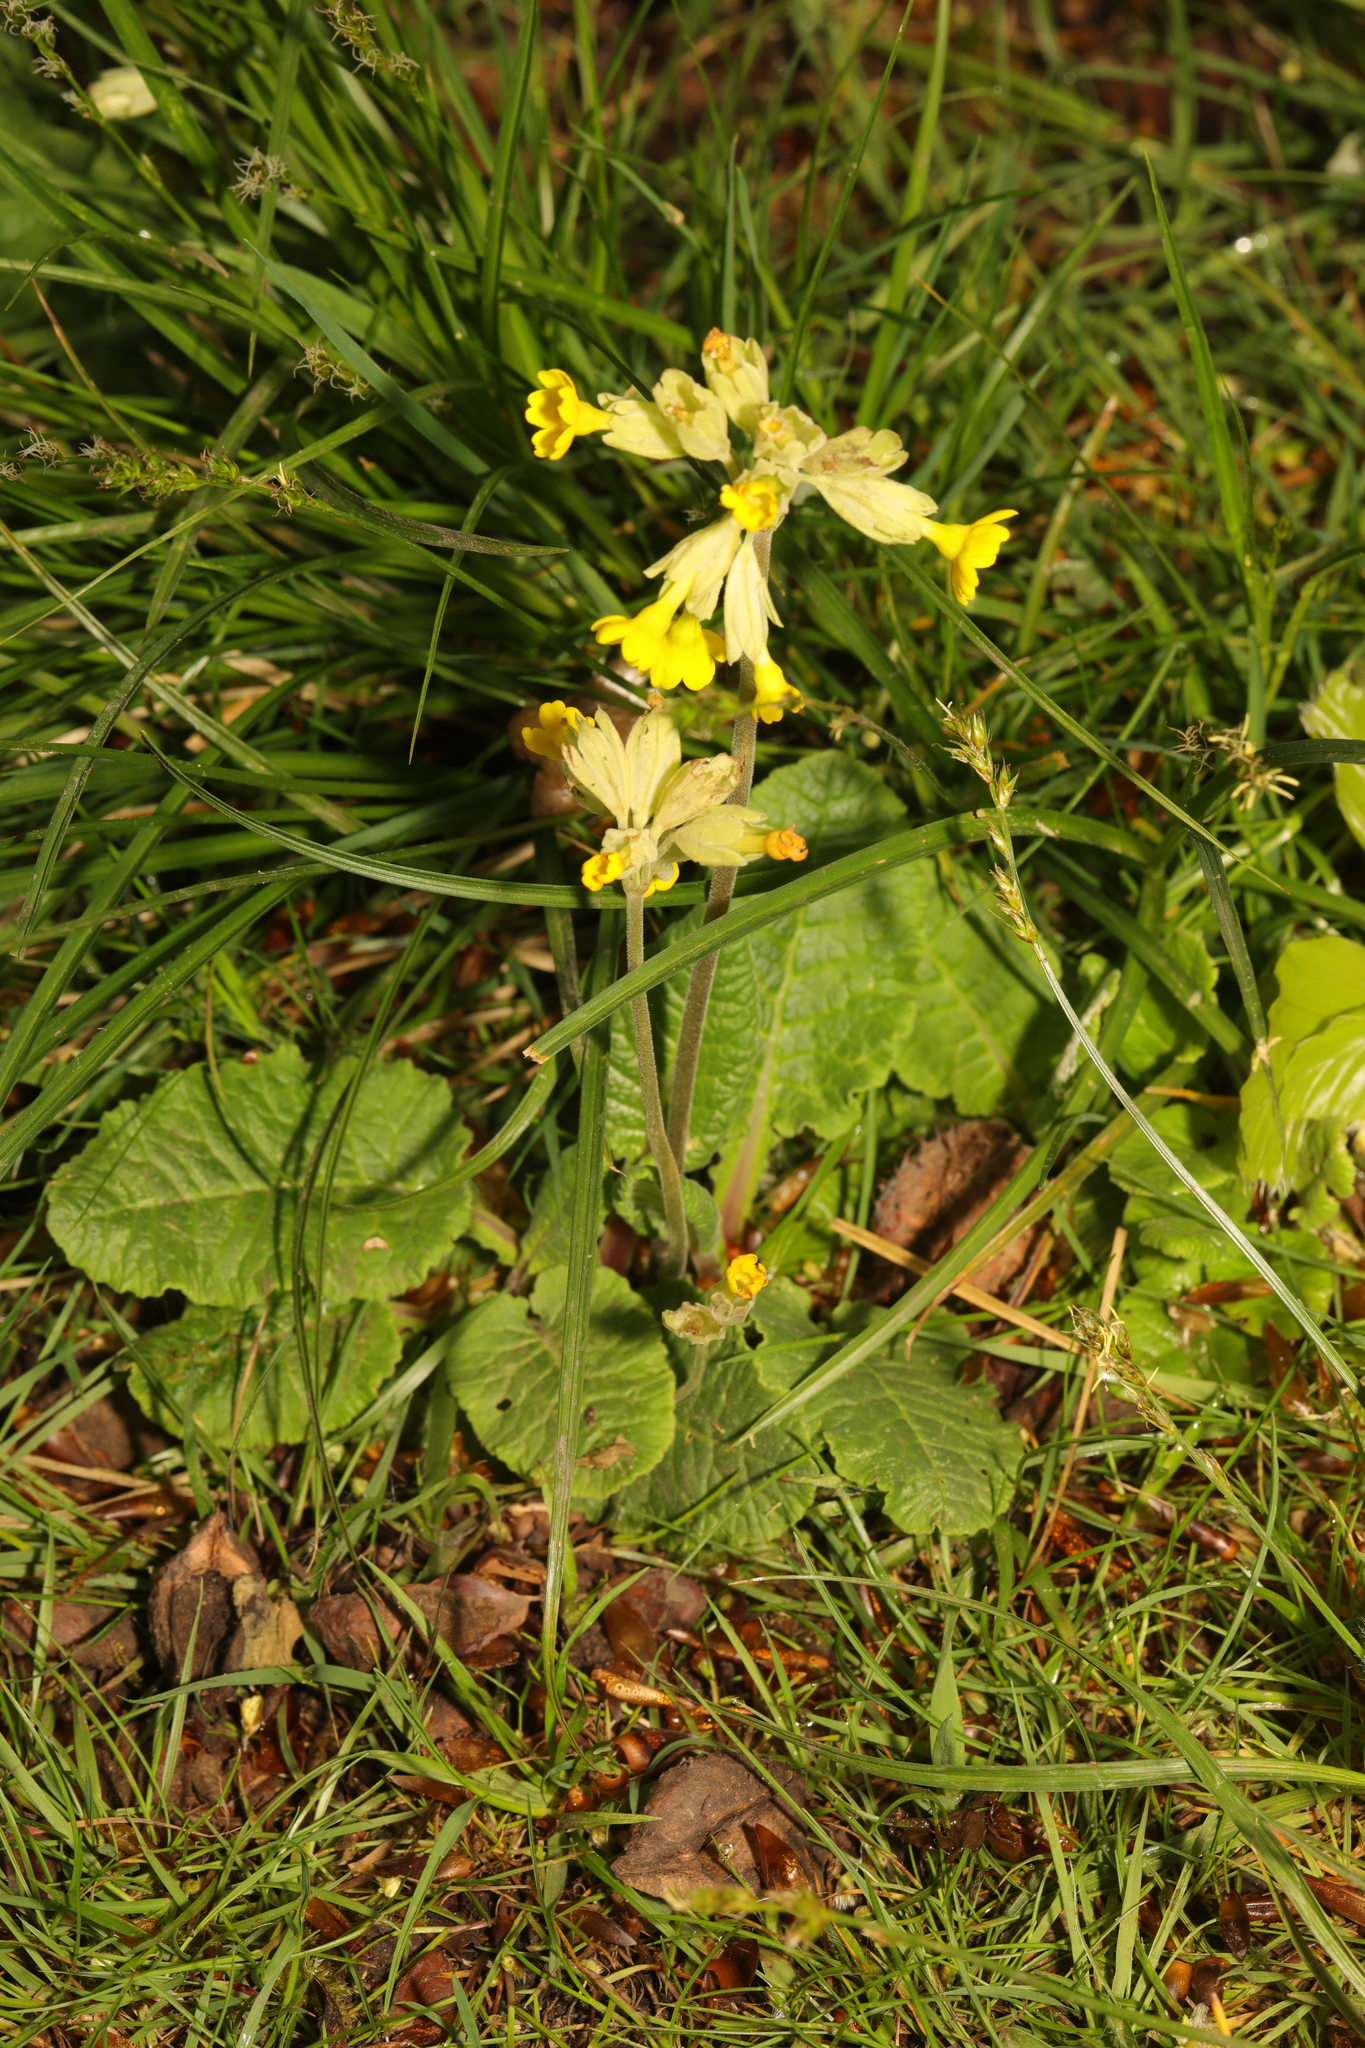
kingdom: Plantae
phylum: Tracheophyta
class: Magnoliopsida
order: Ericales
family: Primulaceae
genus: Primula
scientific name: Primula veris
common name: Cowslip
